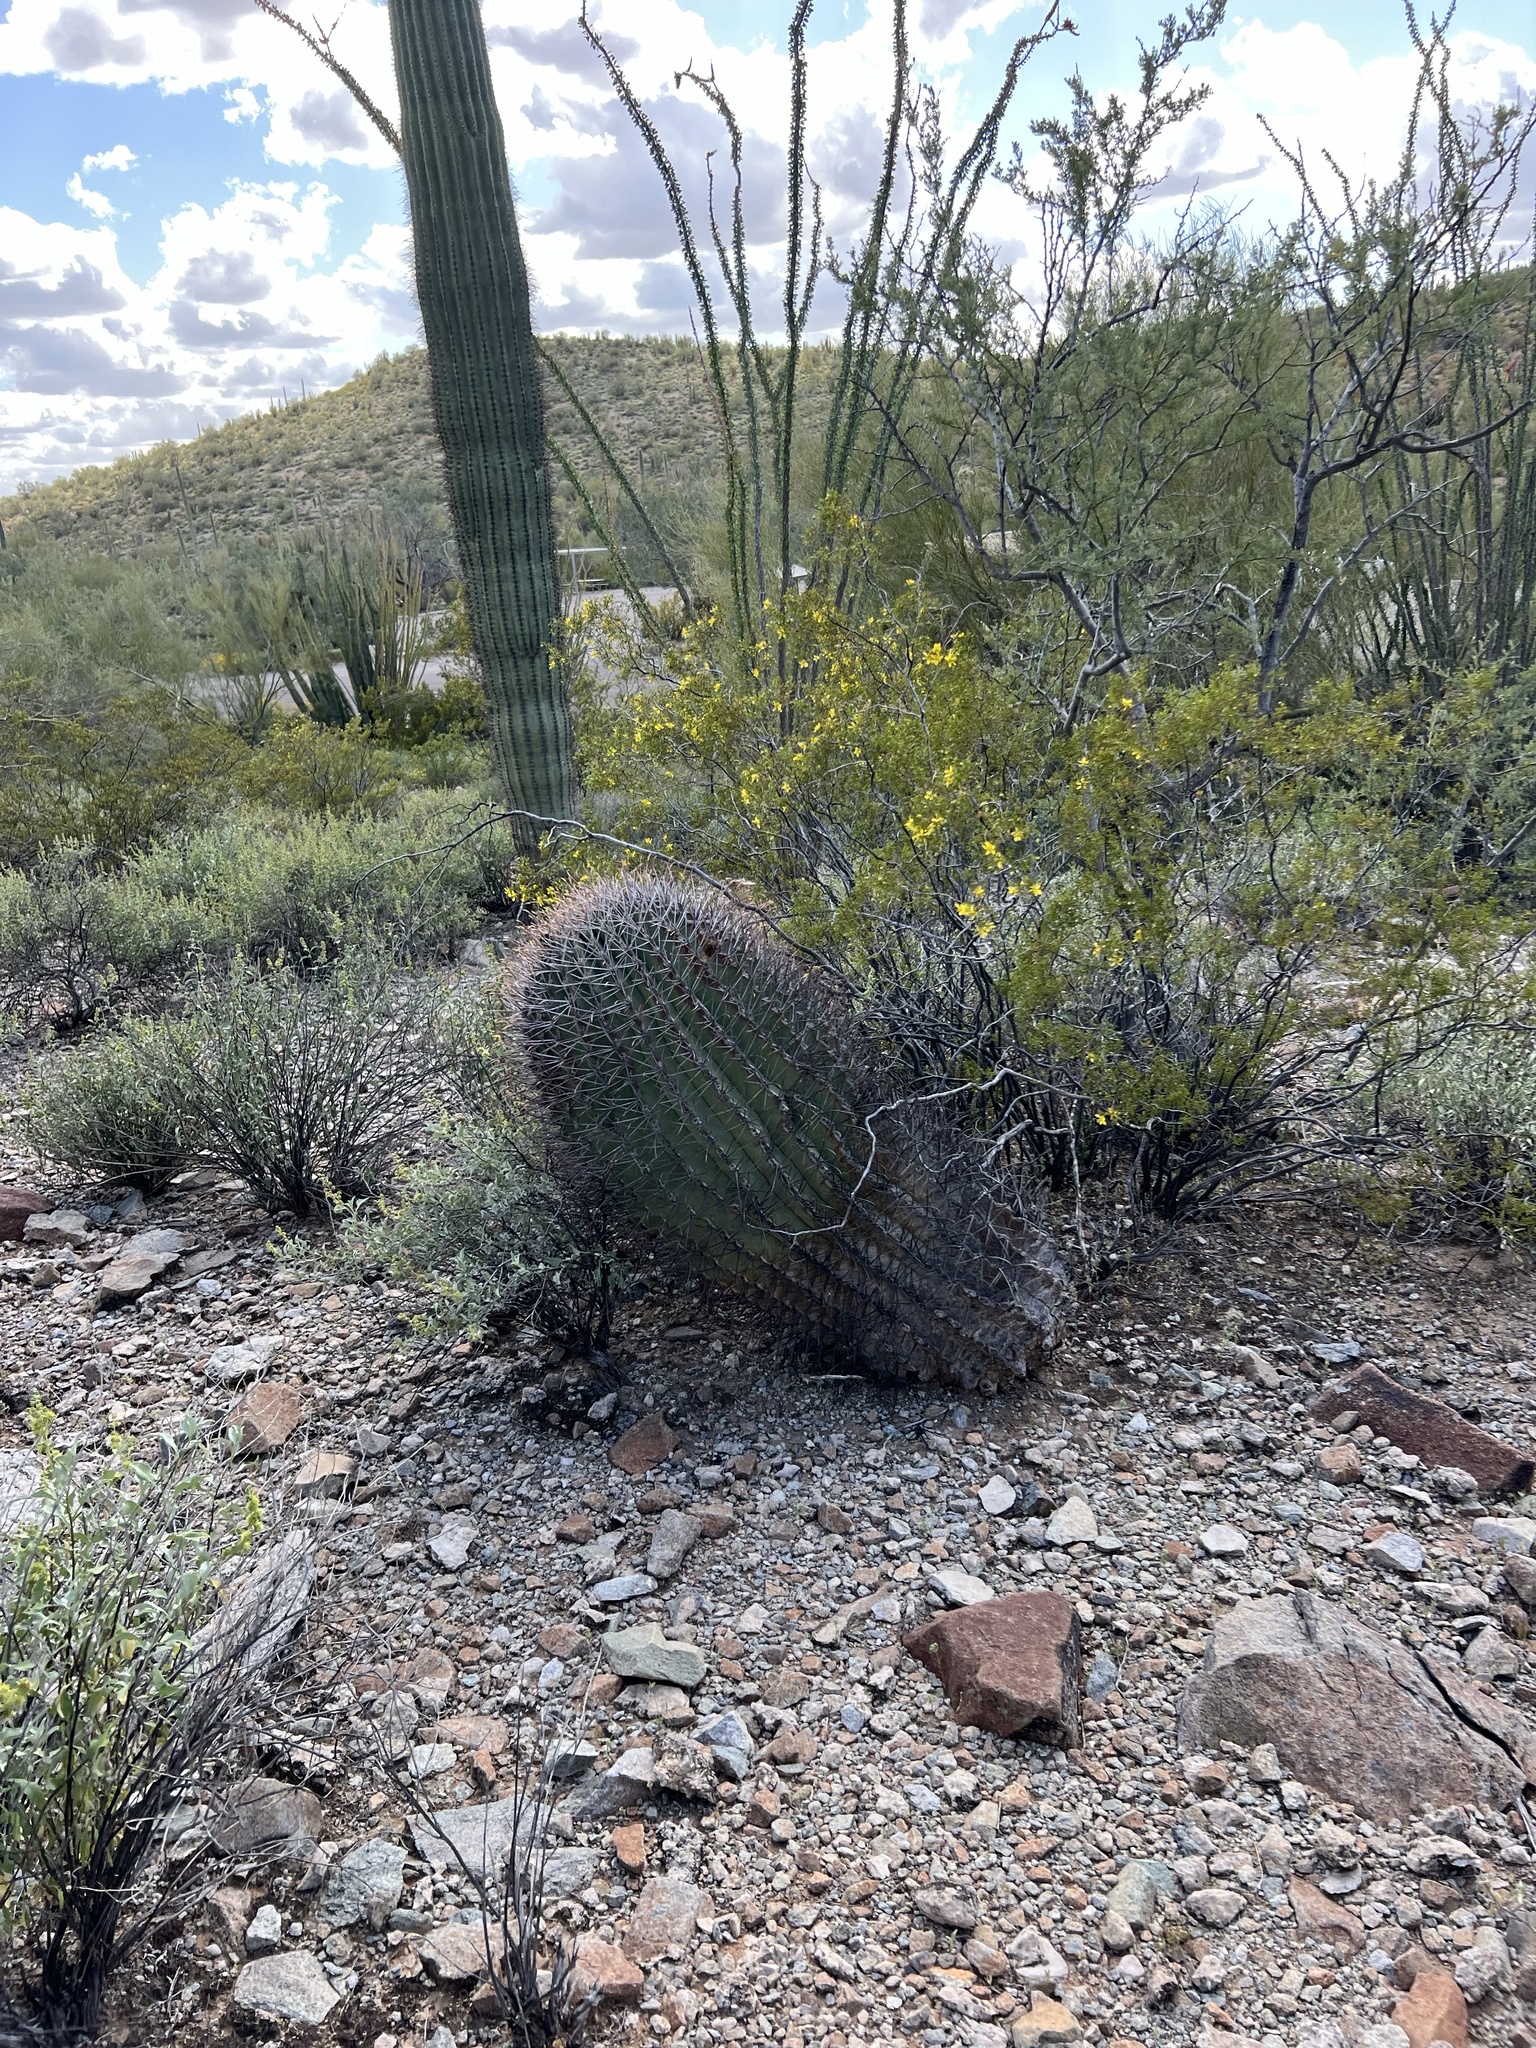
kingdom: Plantae
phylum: Tracheophyta
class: Magnoliopsida
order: Caryophyllales
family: Cactaceae
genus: Ferocactus
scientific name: Ferocactus emoryi
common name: Emory's barrel cactus
